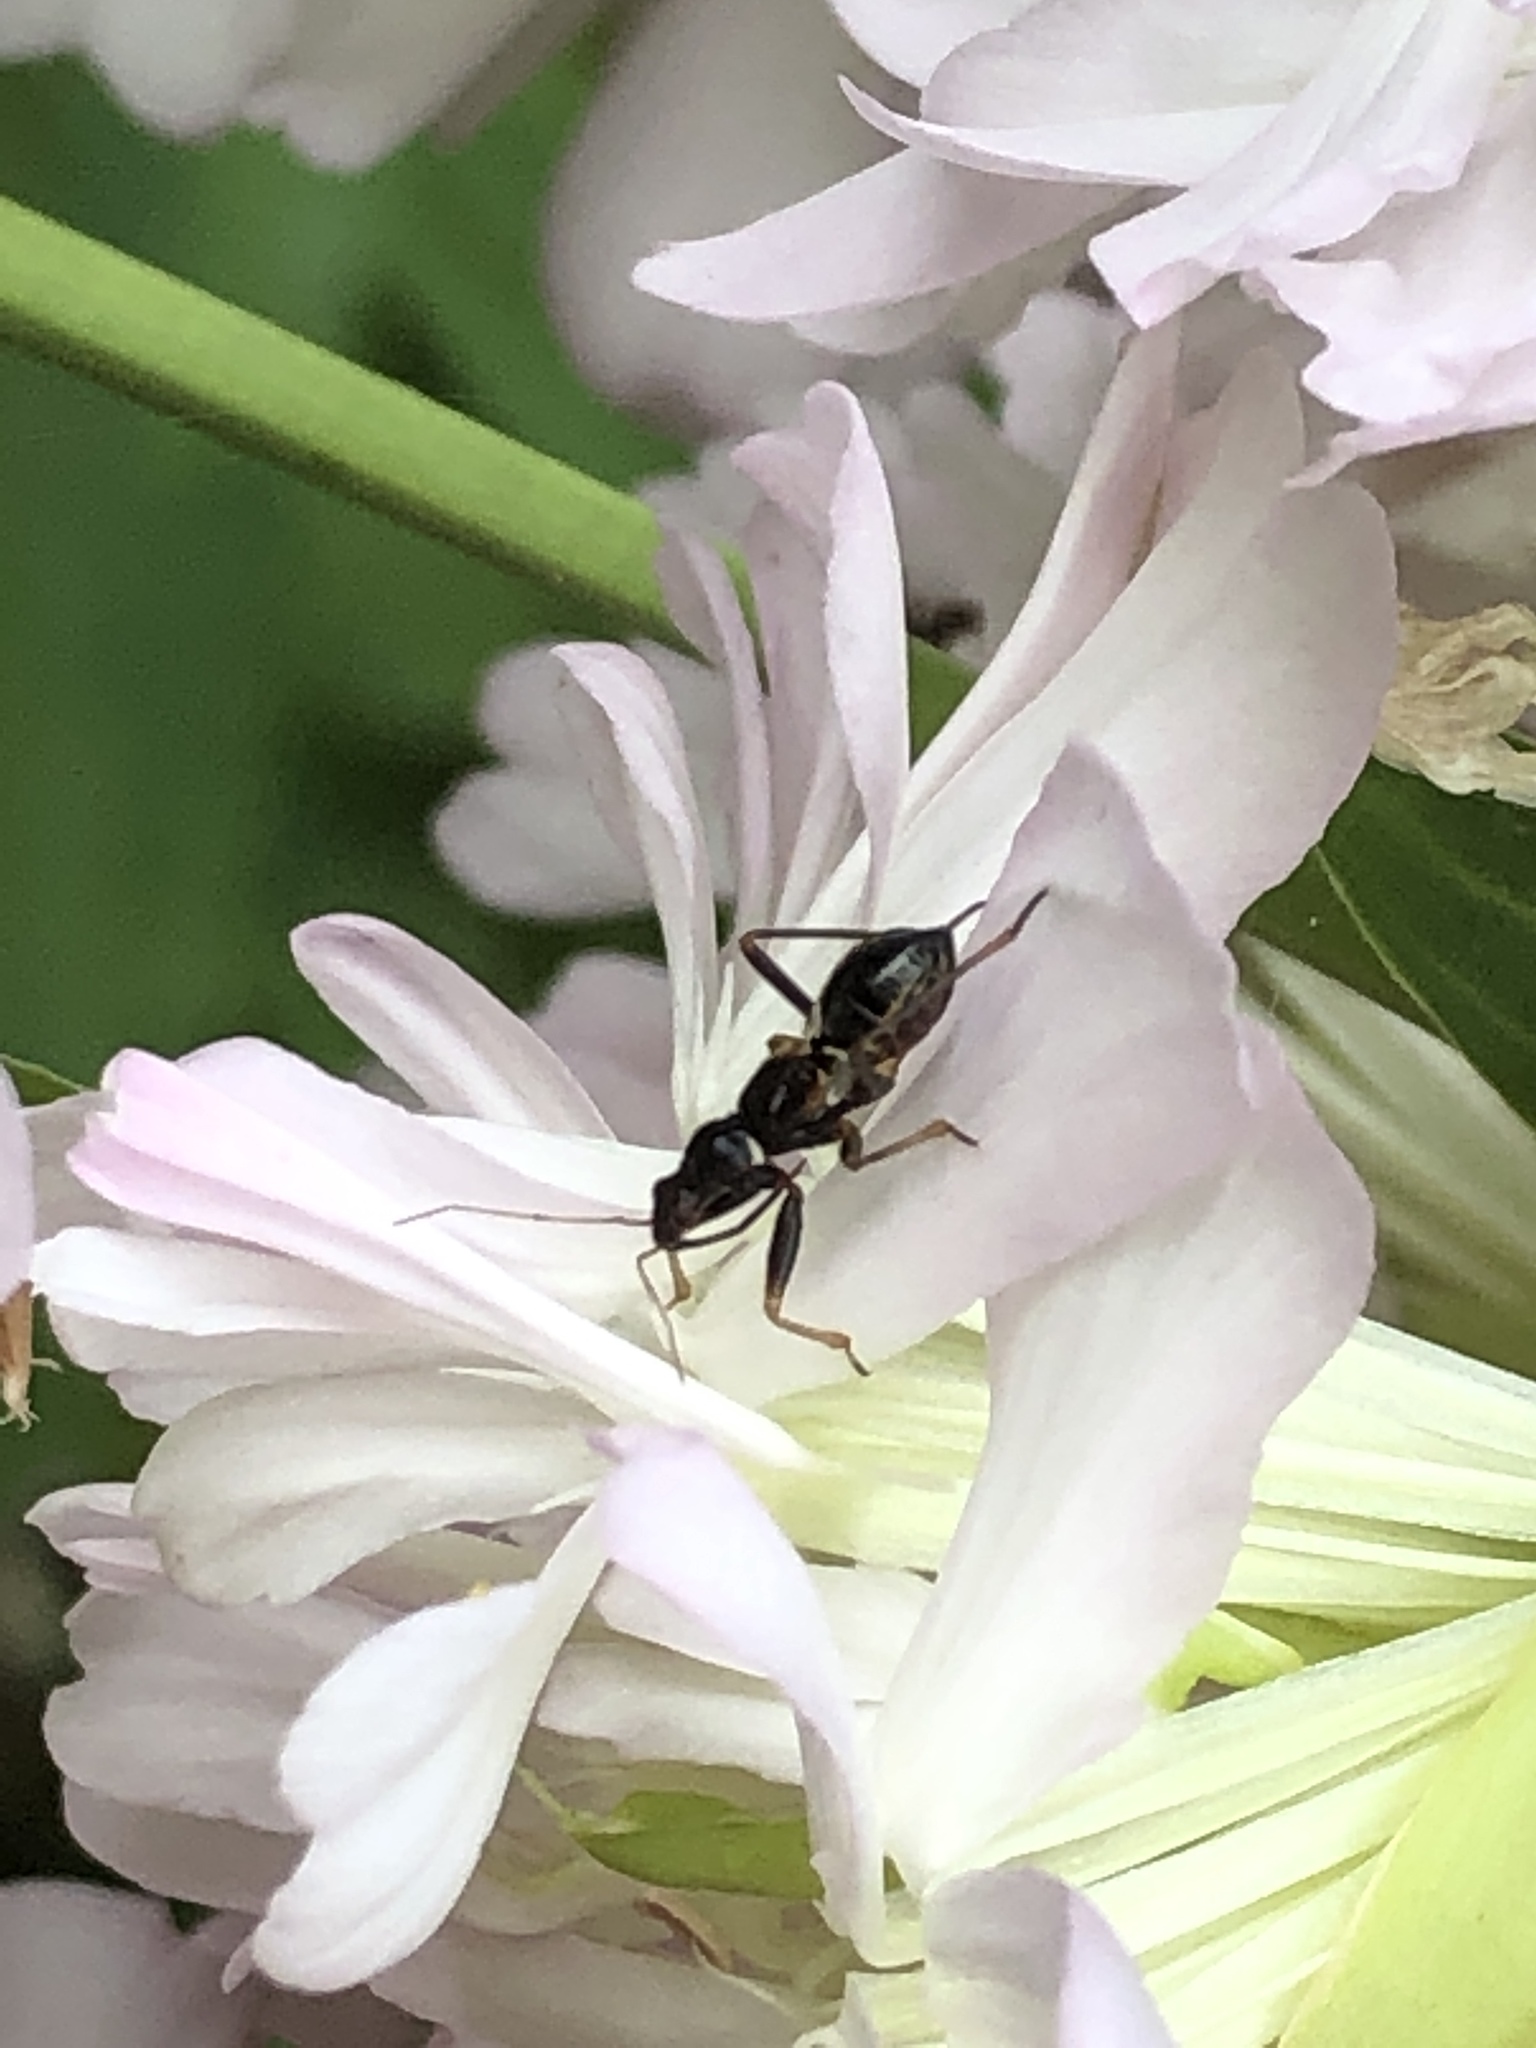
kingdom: Animalia
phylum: Arthropoda
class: Insecta
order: Hemiptera
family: Nabidae
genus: Himacerus
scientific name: Himacerus mirmicoides
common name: Ant damsel bug
